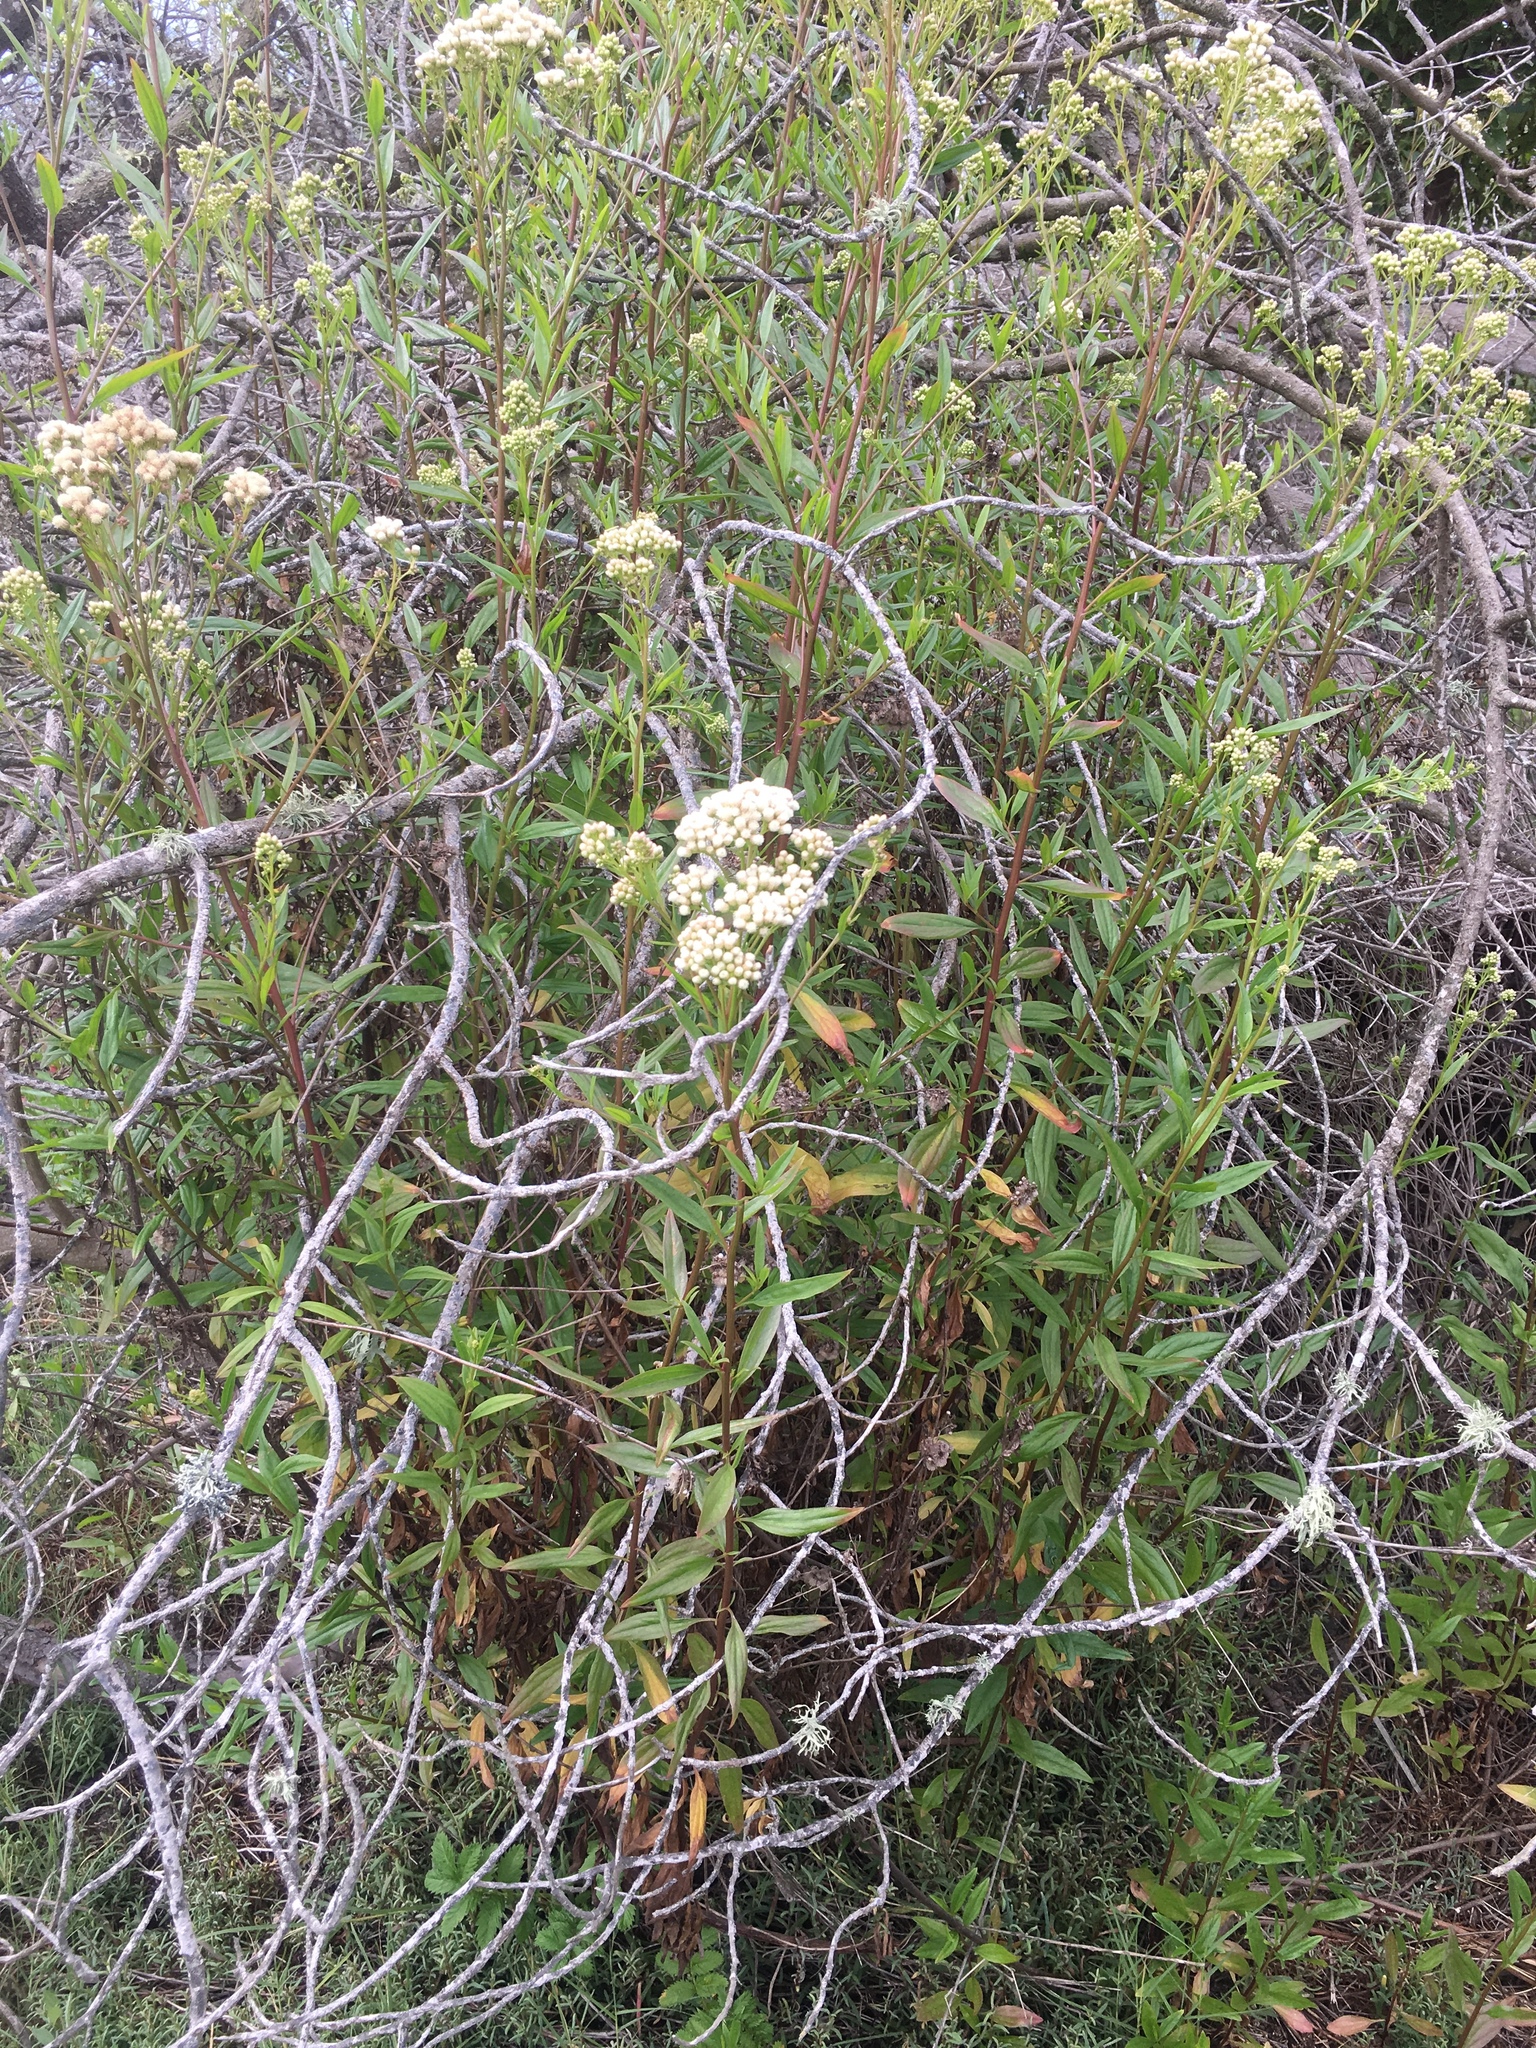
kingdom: Plantae
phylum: Tracheophyta
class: Magnoliopsida
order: Asterales
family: Asteraceae
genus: Baccharis
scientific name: Baccharis glutinosa
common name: Saltmarsh baccharis
